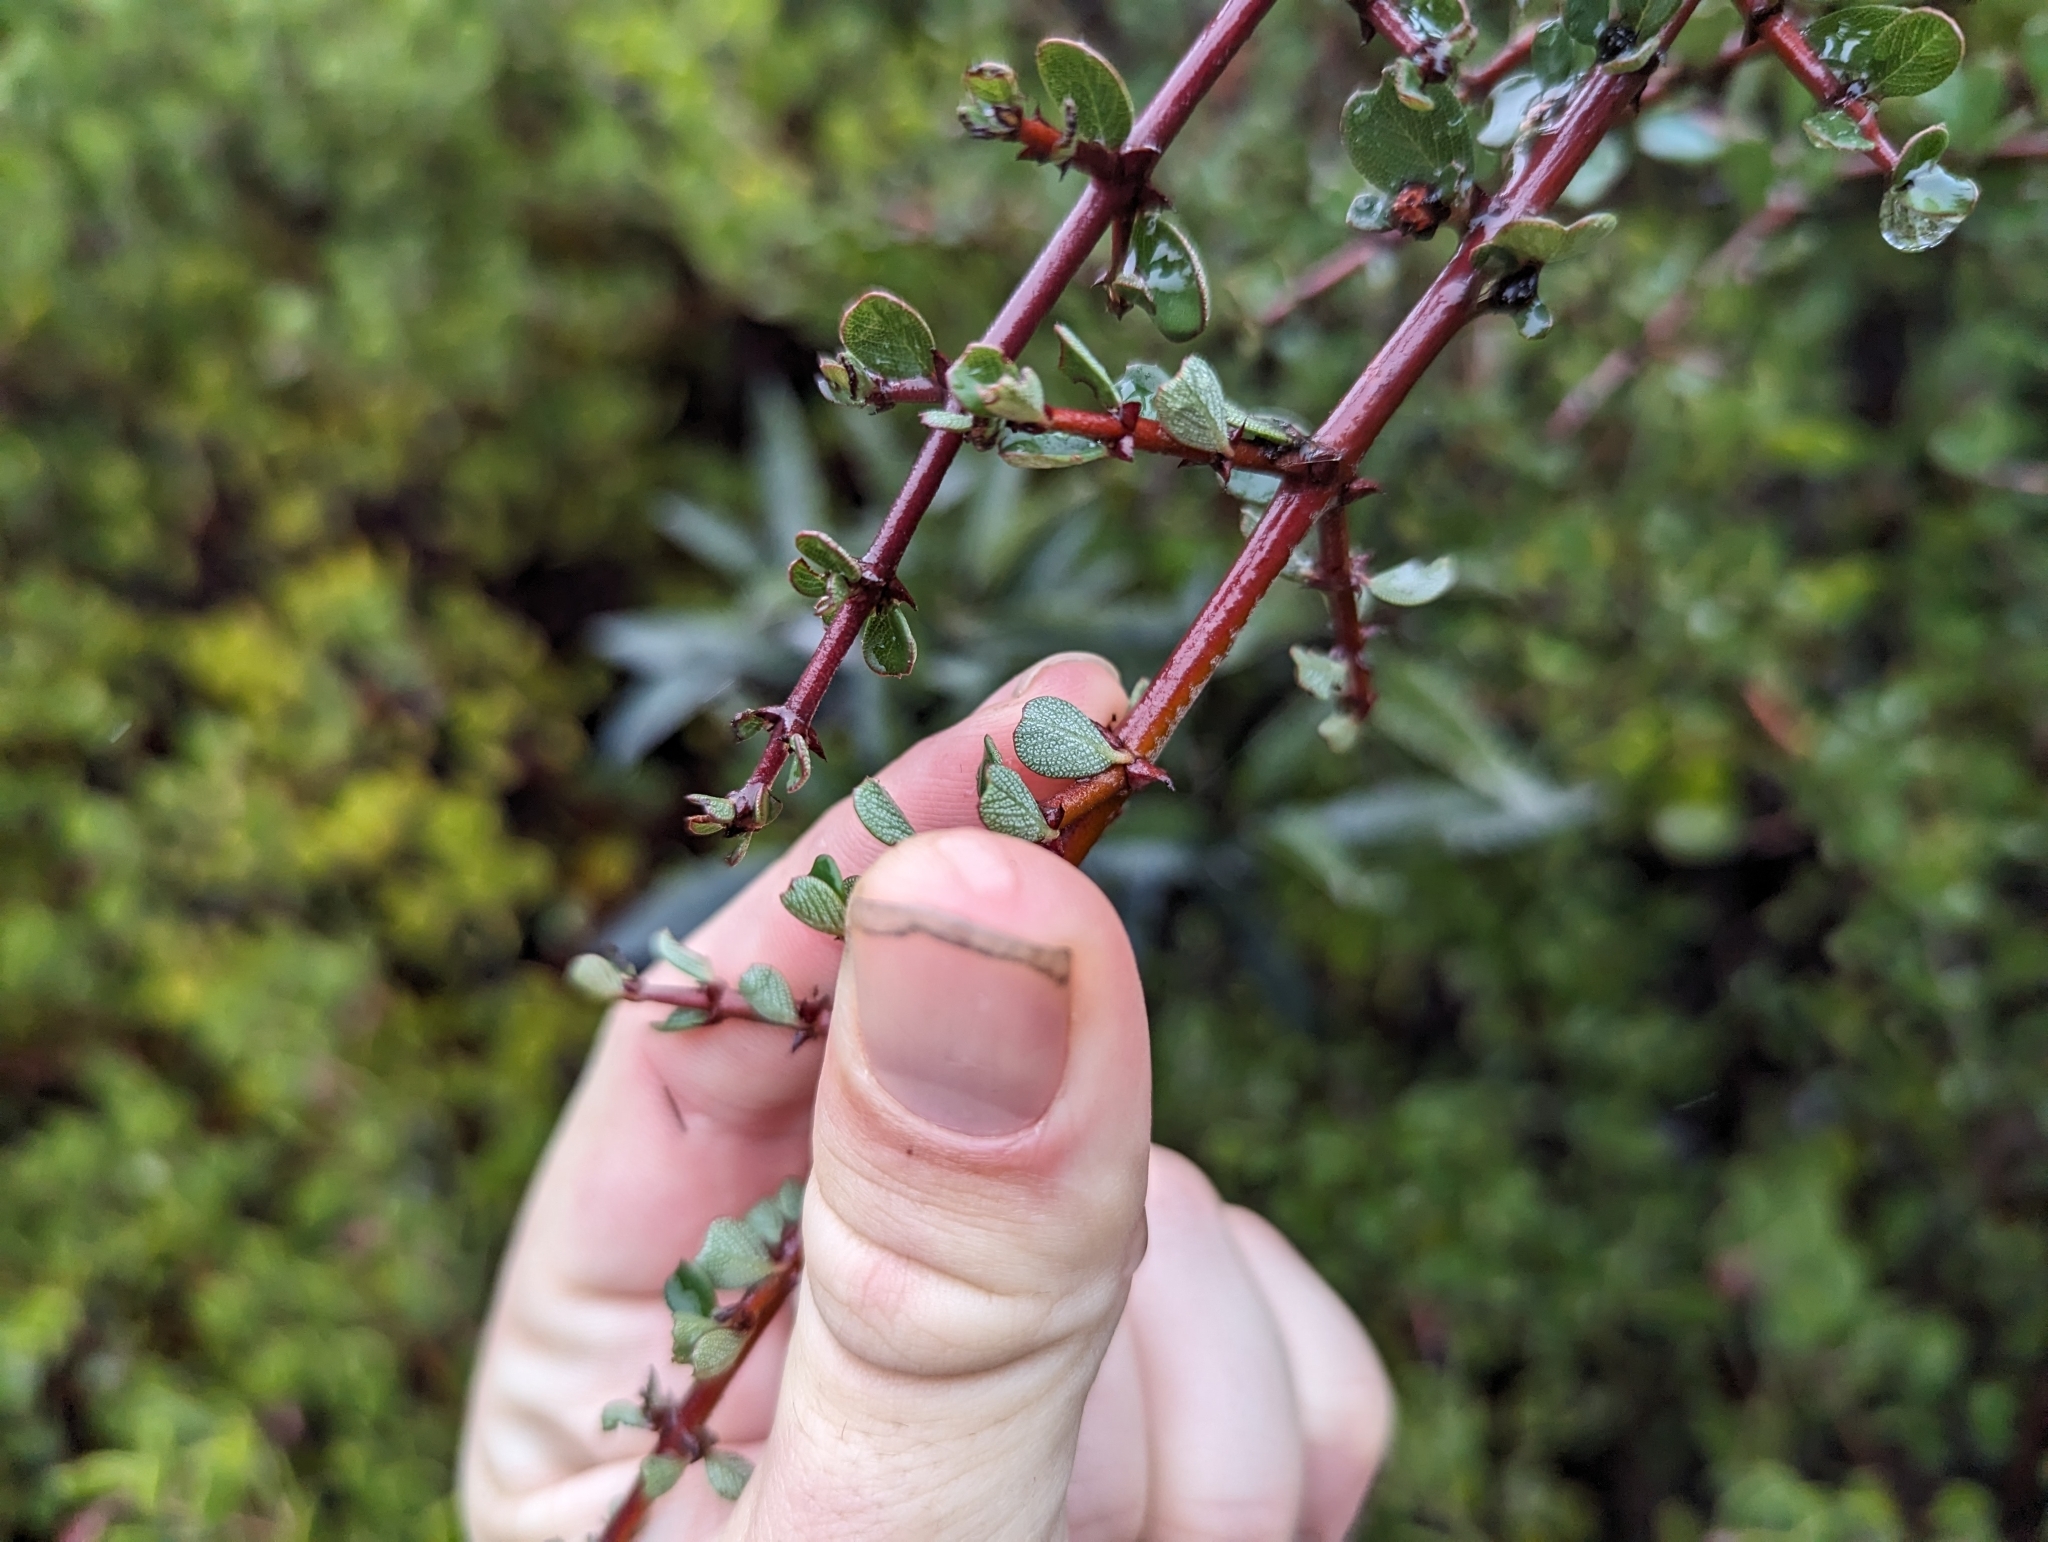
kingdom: Plantae
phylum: Tracheophyta
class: Magnoliopsida
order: Rosales
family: Rhamnaceae
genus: Ceanothus
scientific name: Ceanothus cuneatus
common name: Cuneate ceanothus
